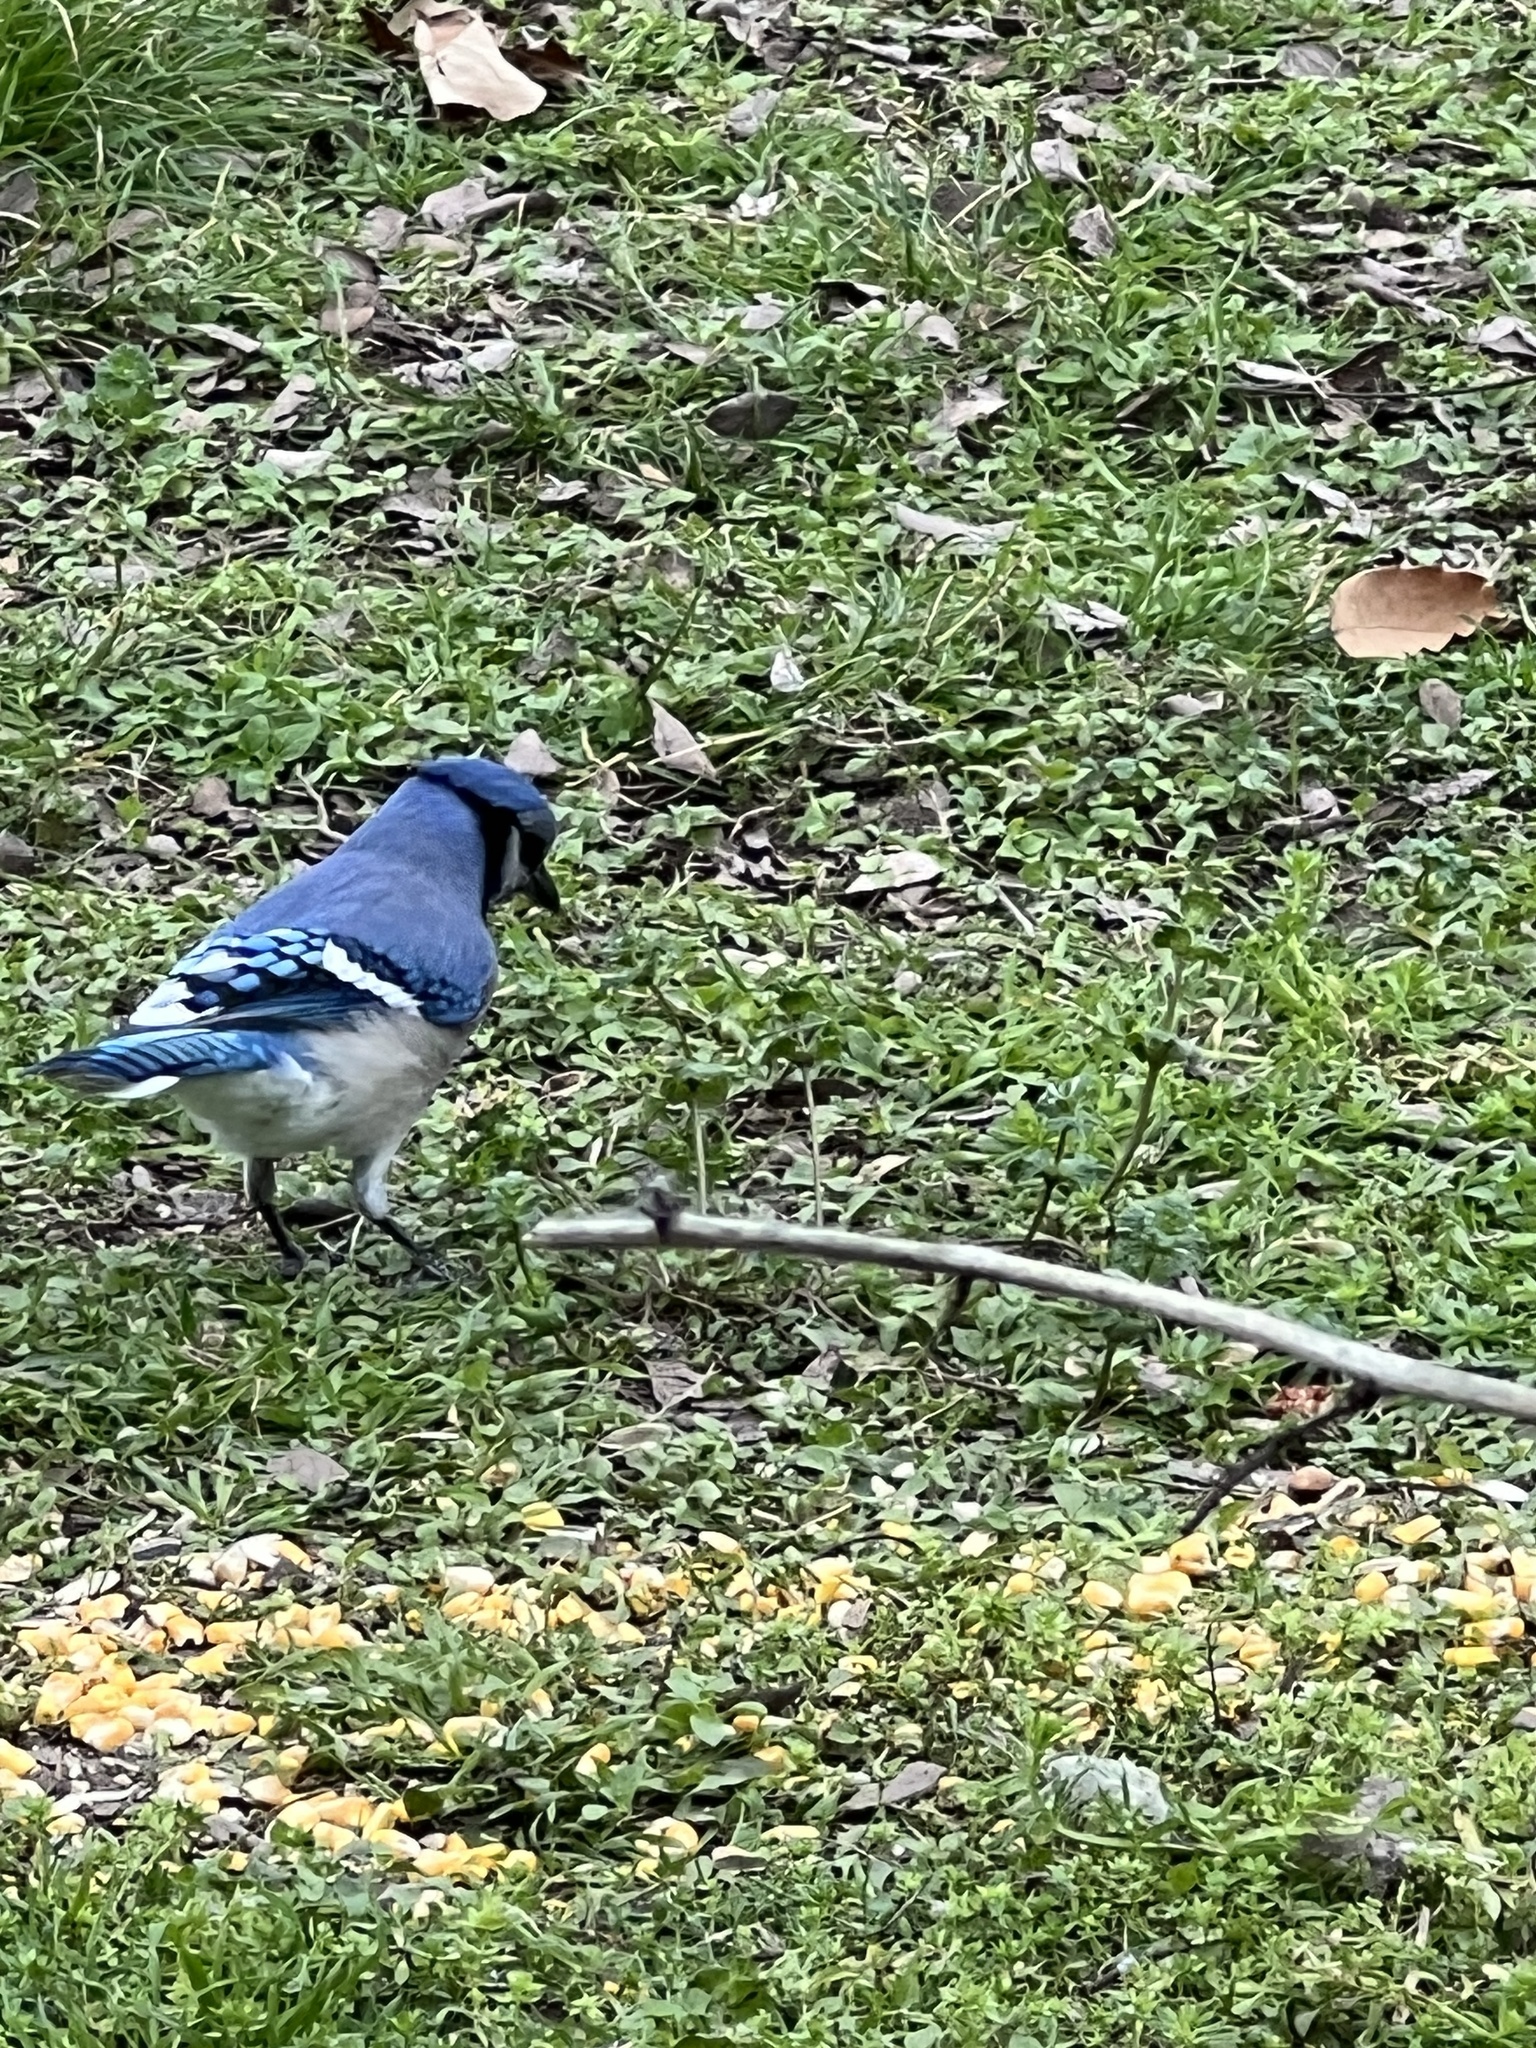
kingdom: Animalia
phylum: Chordata
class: Aves
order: Passeriformes
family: Corvidae
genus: Cyanocitta
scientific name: Cyanocitta cristata
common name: Blue jay
